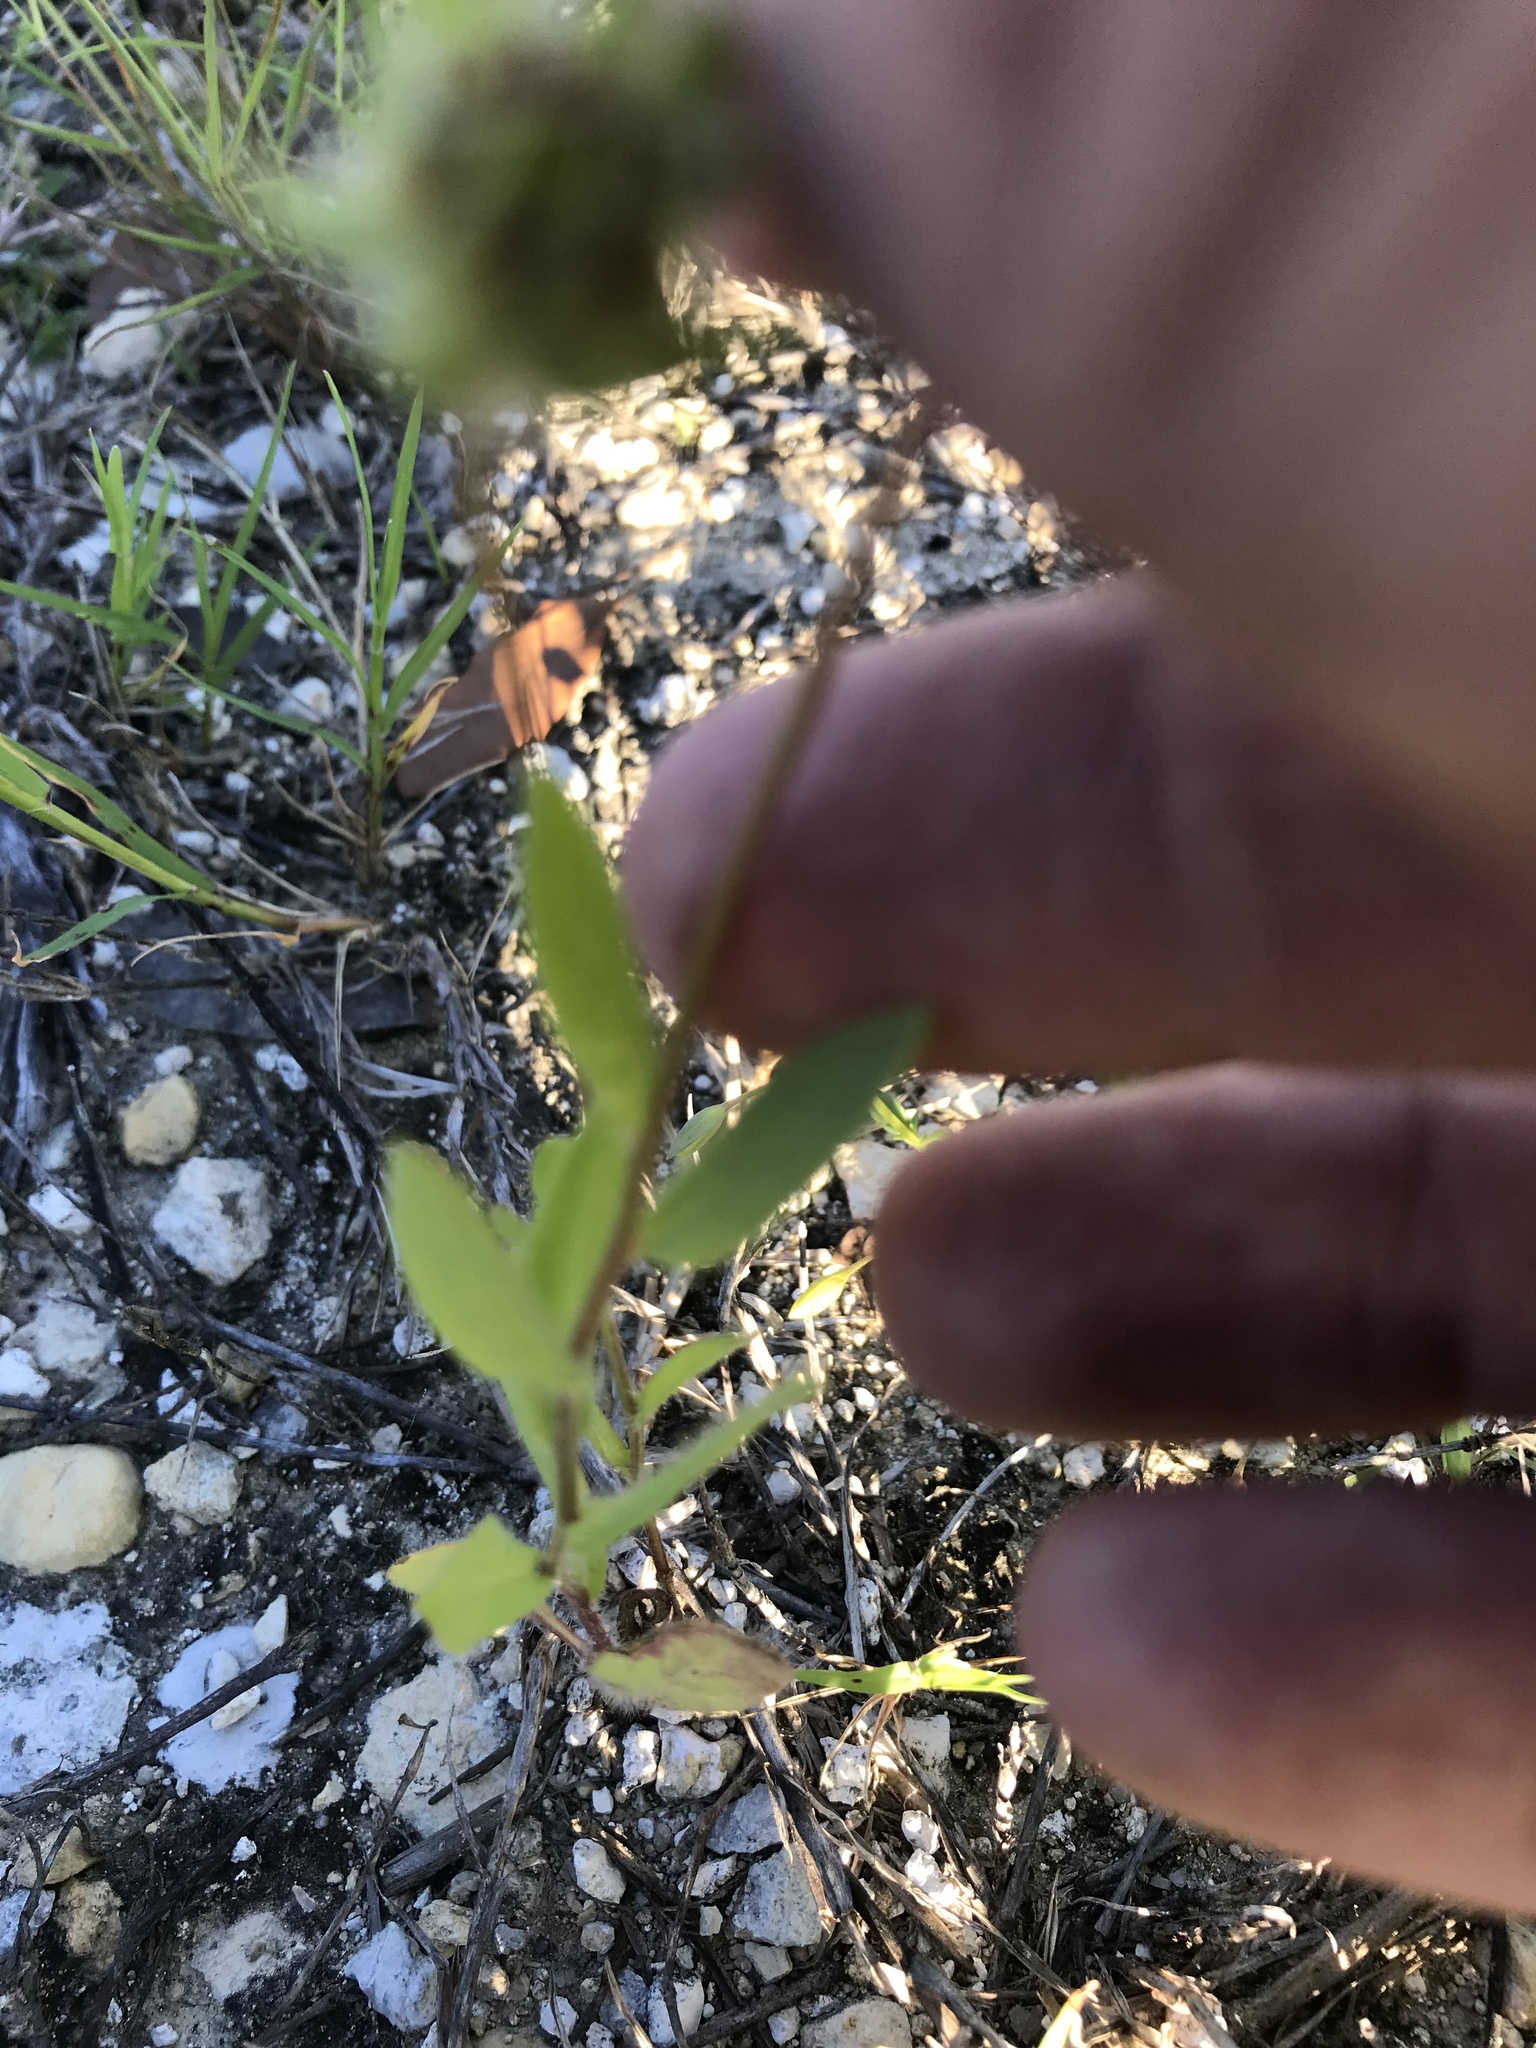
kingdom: Plantae
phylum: Tracheophyta
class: Magnoliopsida
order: Asterales
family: Asteraceae
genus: Gaillardia
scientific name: Gaillardia pulchella
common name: Firewheel
